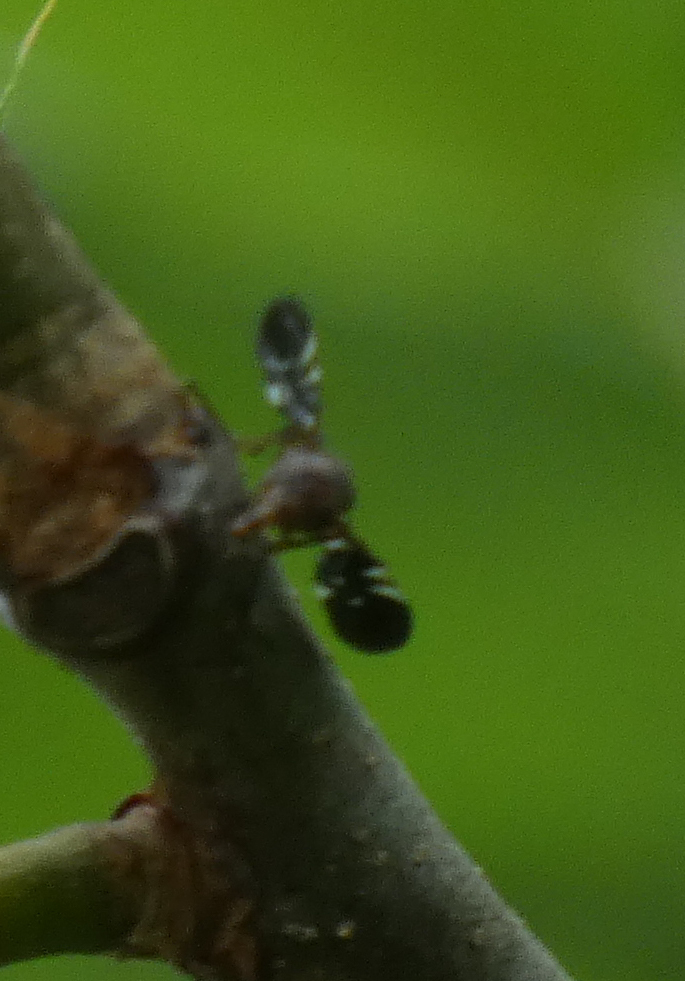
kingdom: Animalia
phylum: Arthropoda
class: Insecta
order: Diptera
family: Ulidiidae
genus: Delphinia
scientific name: Delphinia picta
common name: Common picture-winged fly
